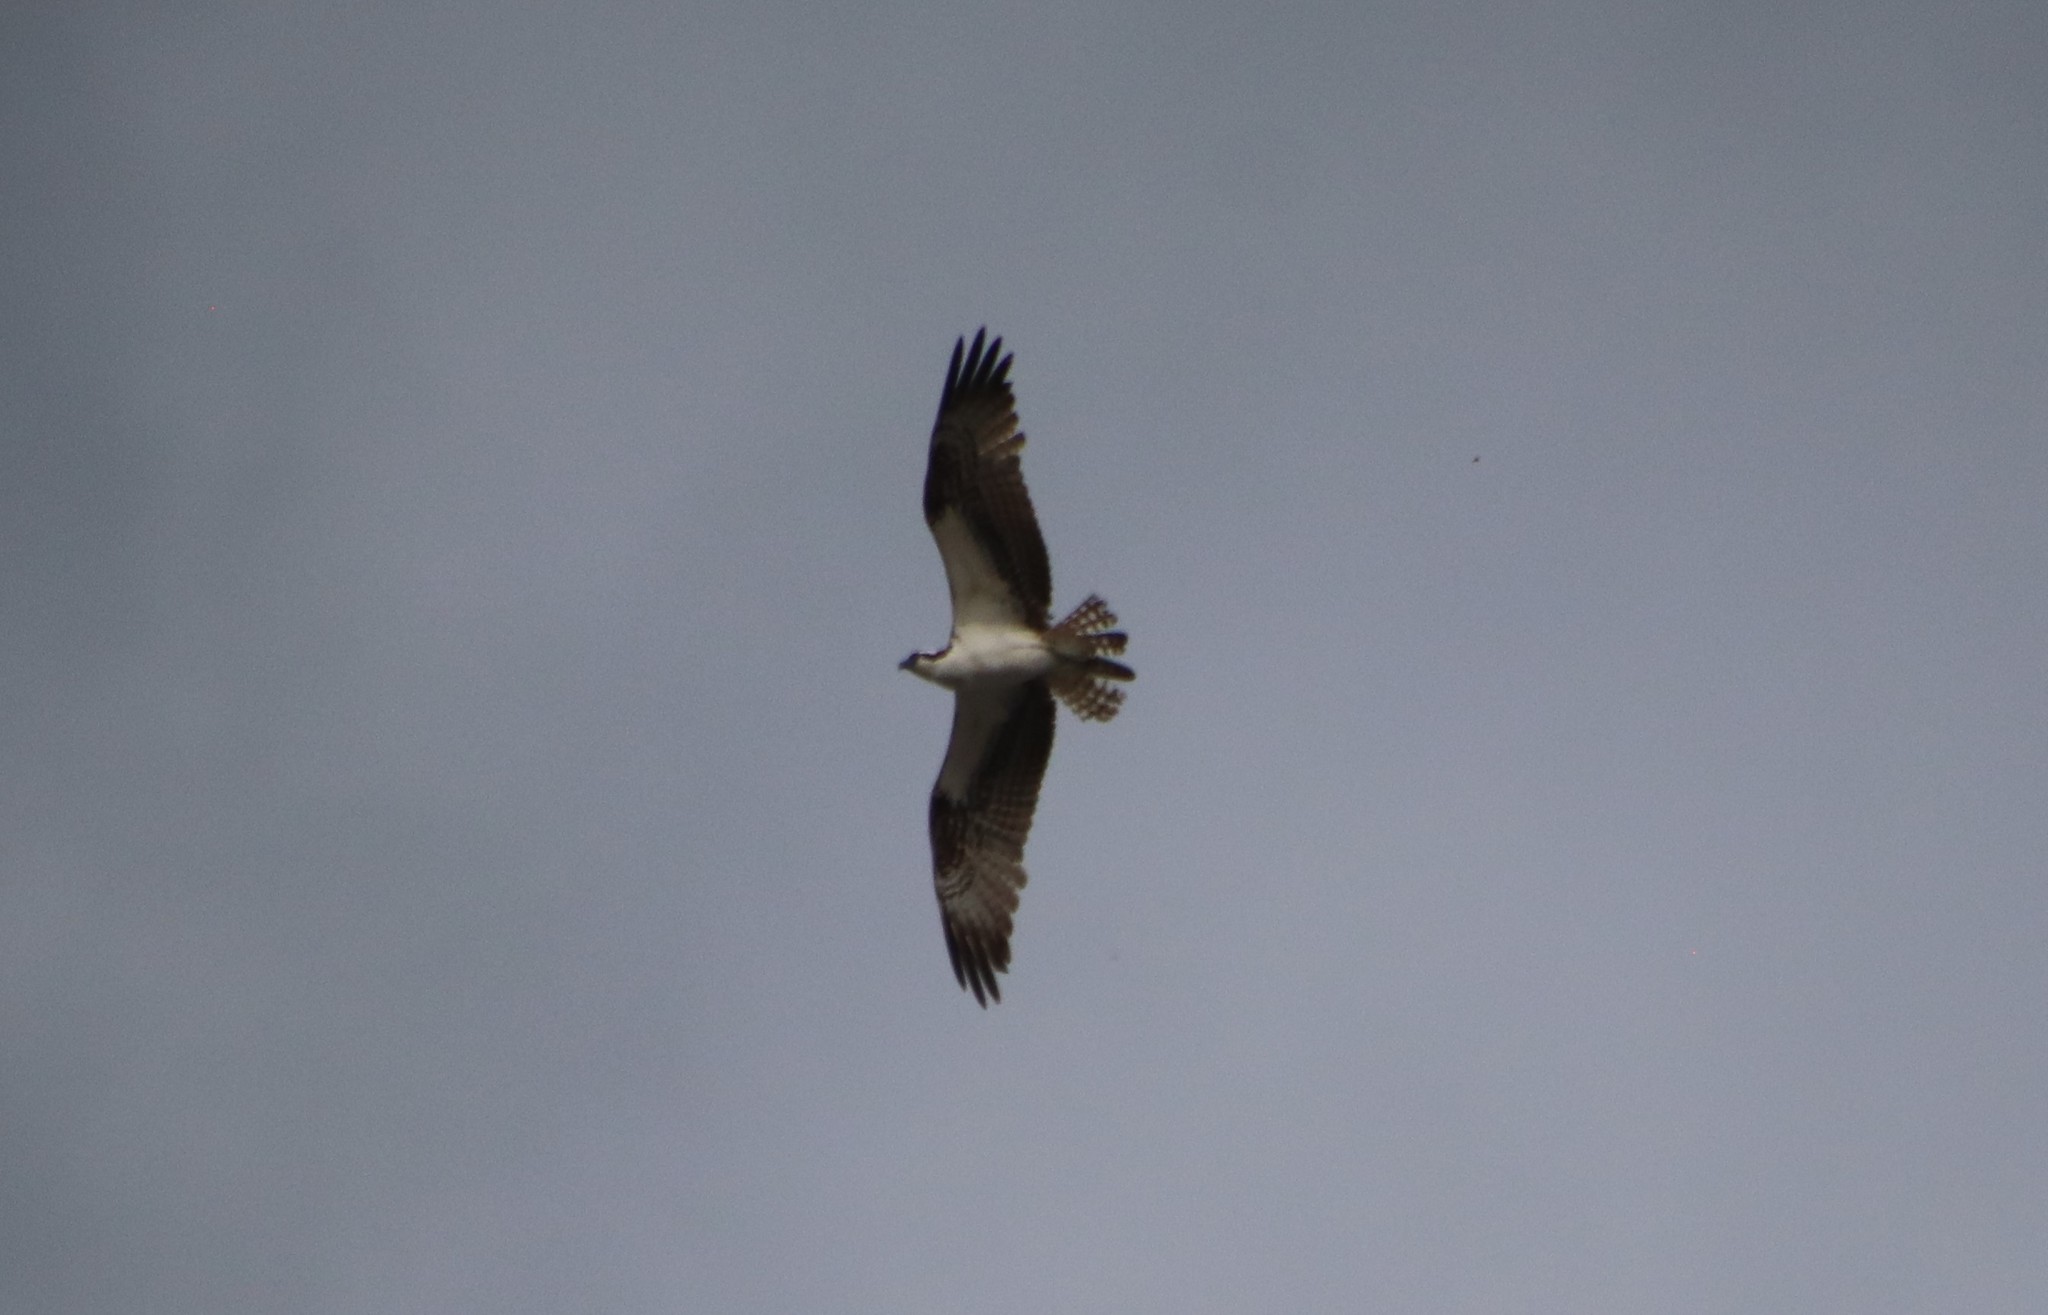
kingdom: Animalia
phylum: Chordata
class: Aves
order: Accipitriformes
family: Pandionidae
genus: Pandion
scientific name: Pandion haliaetus
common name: Osprey
